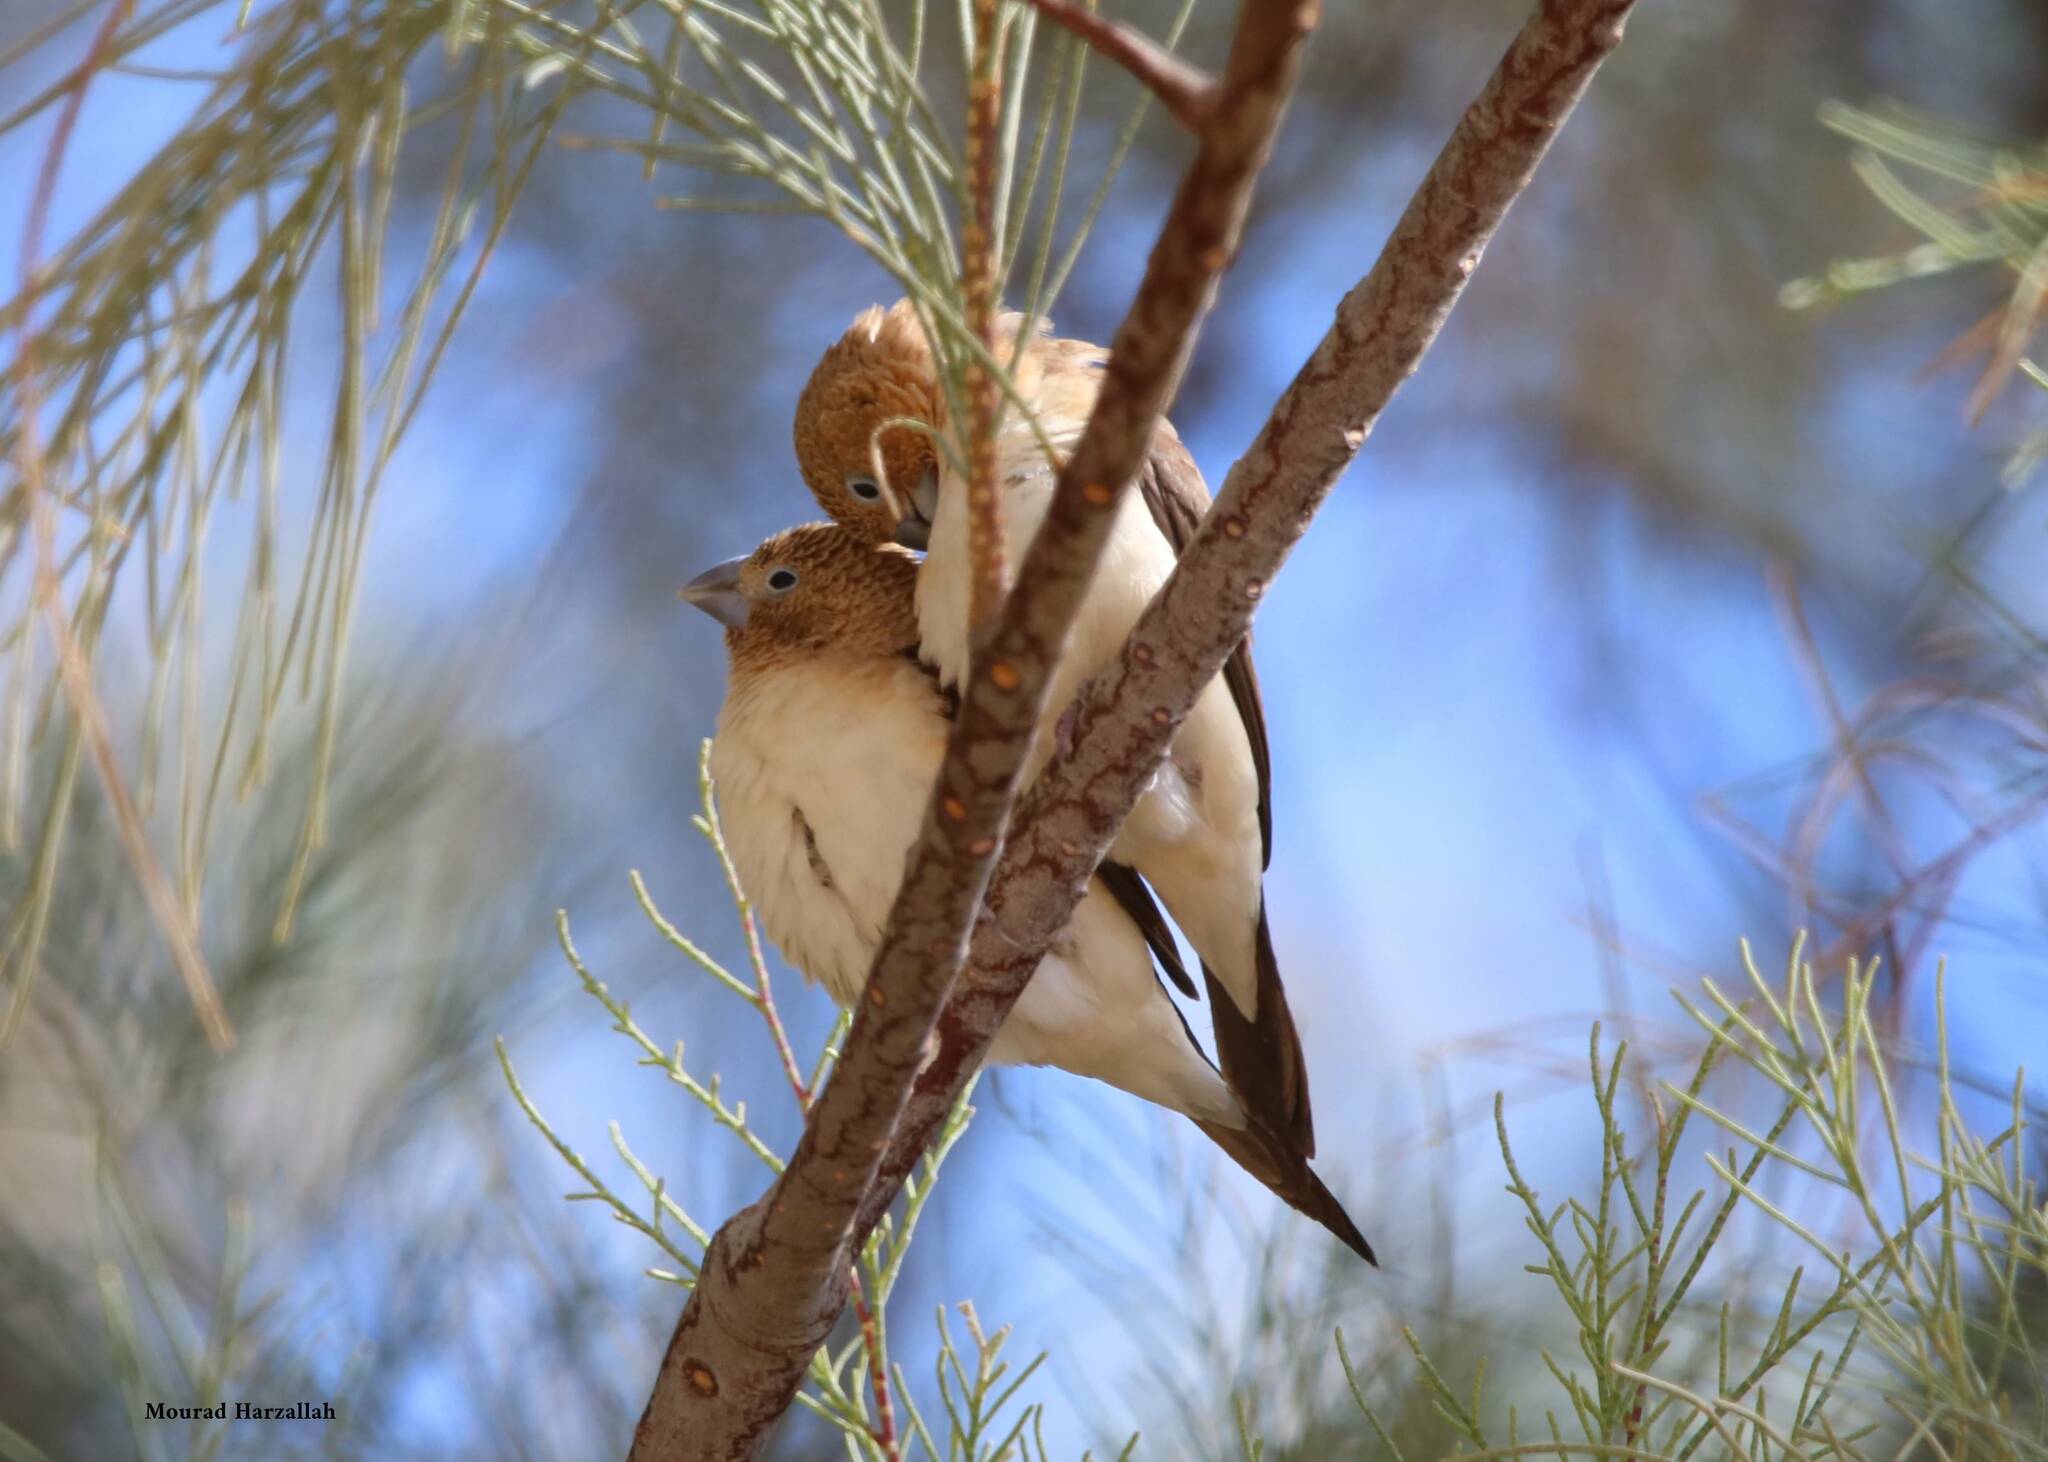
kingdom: Animalia
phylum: Chordata
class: Aves
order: Passeriformes
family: Estrildidae
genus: Euodice
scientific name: Euodice cantans
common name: African silverbill
